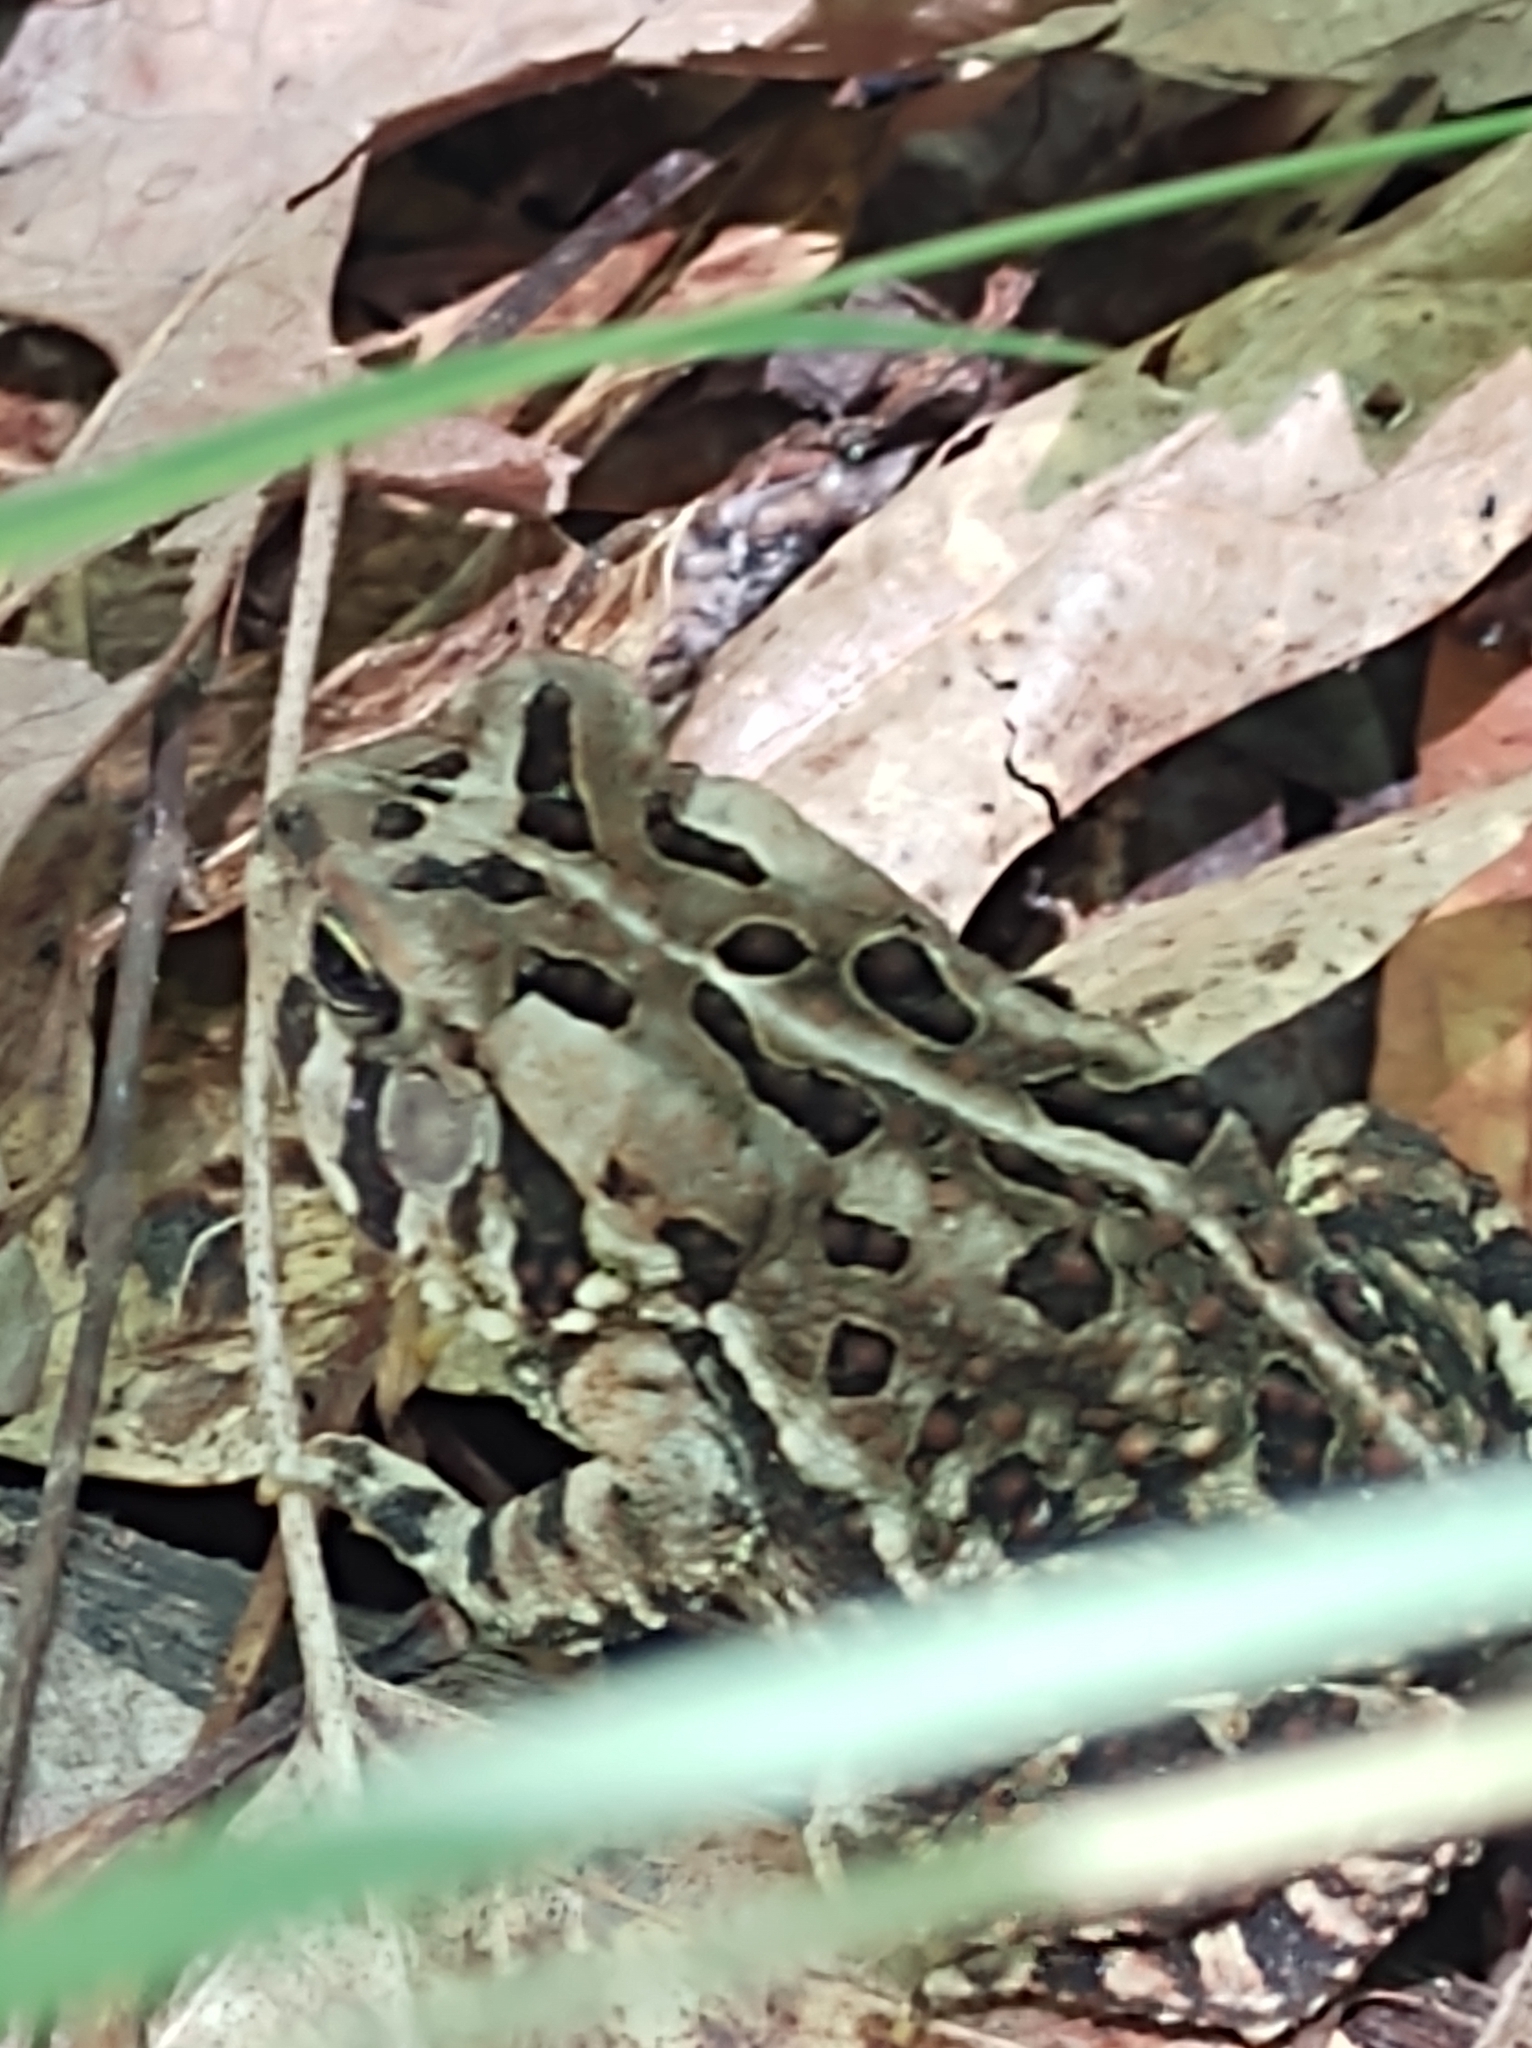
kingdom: Animalia
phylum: Chordata
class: Amphibia
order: Anura
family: Bufonidae
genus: Anaxyrus
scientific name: Anaxyrus fowleri
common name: Fowler's toad
